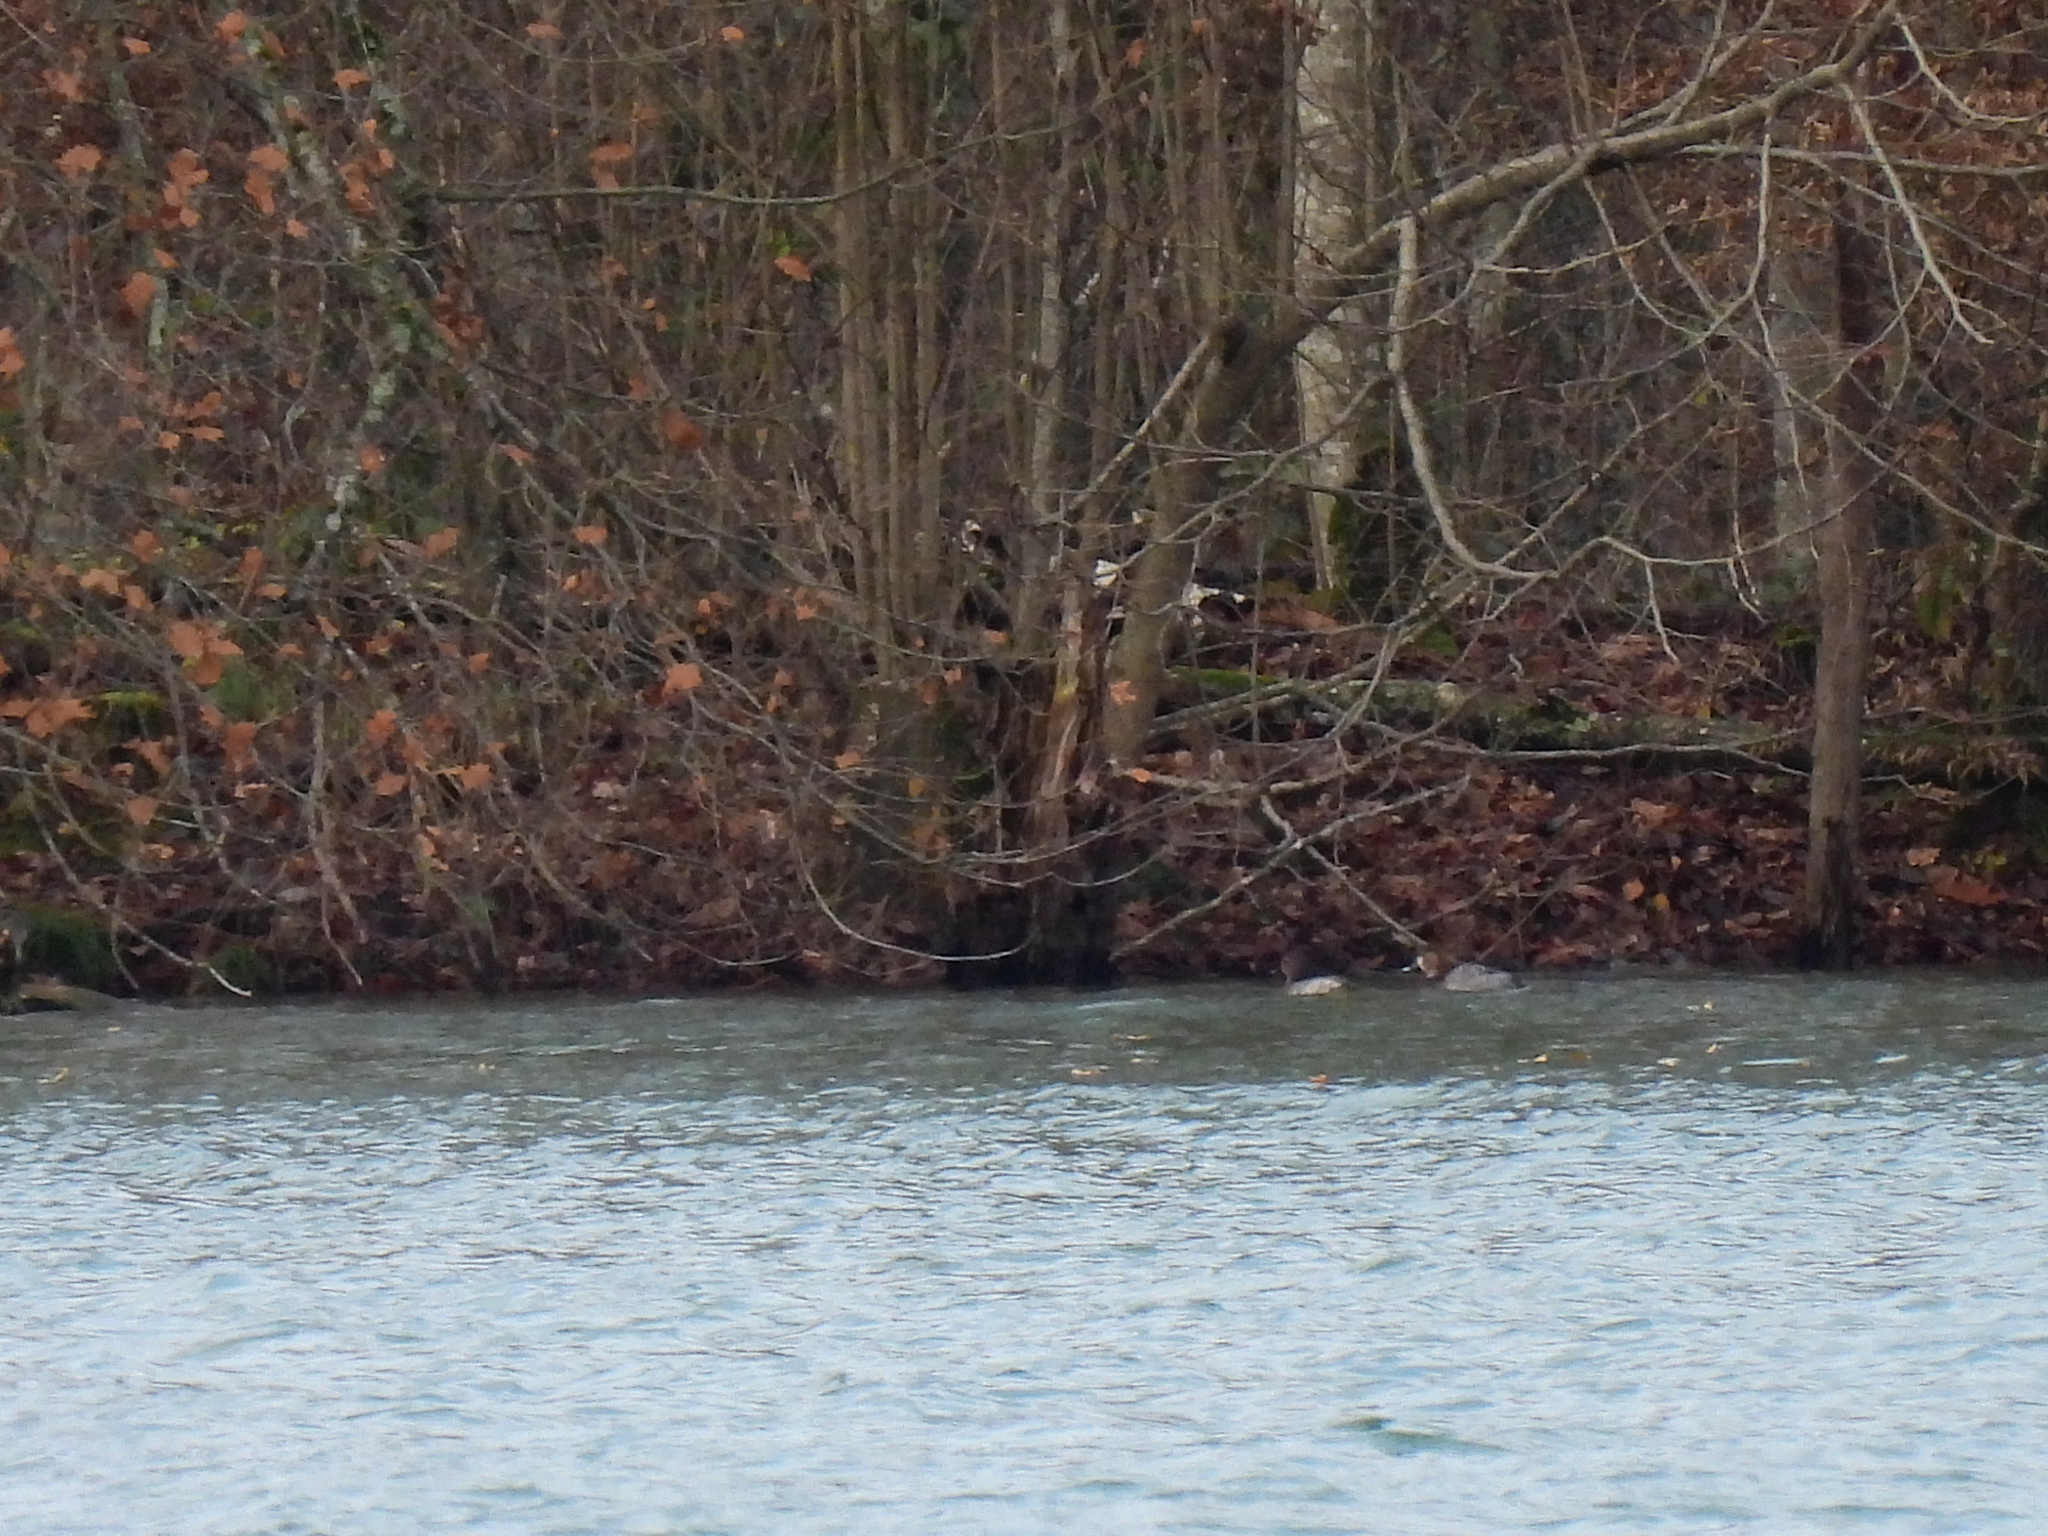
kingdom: Animalia
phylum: Chordata
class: Aves
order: Anseriformes
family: Anatidae
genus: Aythya
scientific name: Aythya ferina
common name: Common pochard
